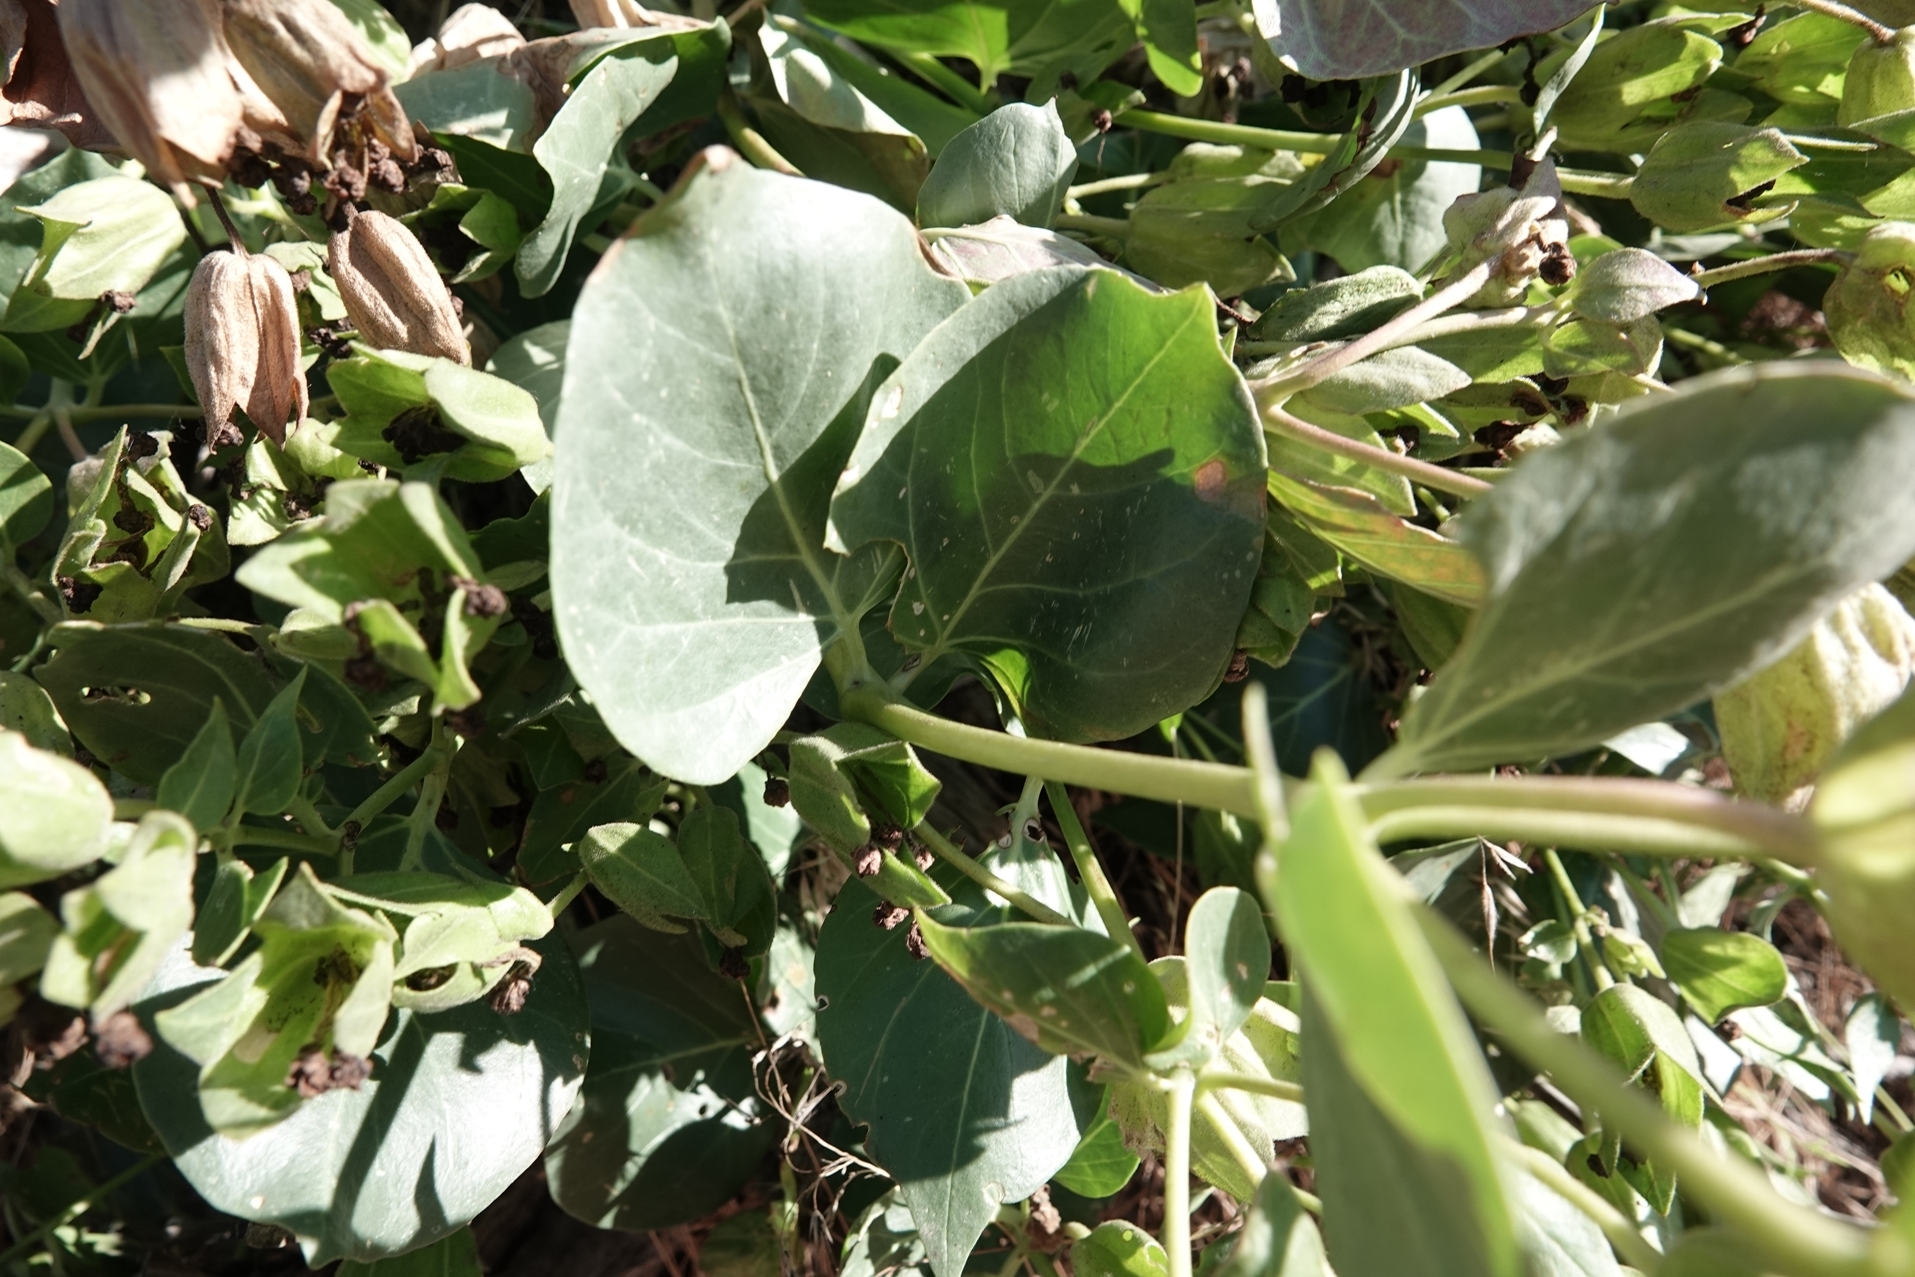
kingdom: Plantae
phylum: Tracheophyta
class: Magnoliopsida
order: Caryophyllales
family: Nyctaginaceae
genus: Mirabilis
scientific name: Mirabilis multiflora
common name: Froebel's four-o'clock
